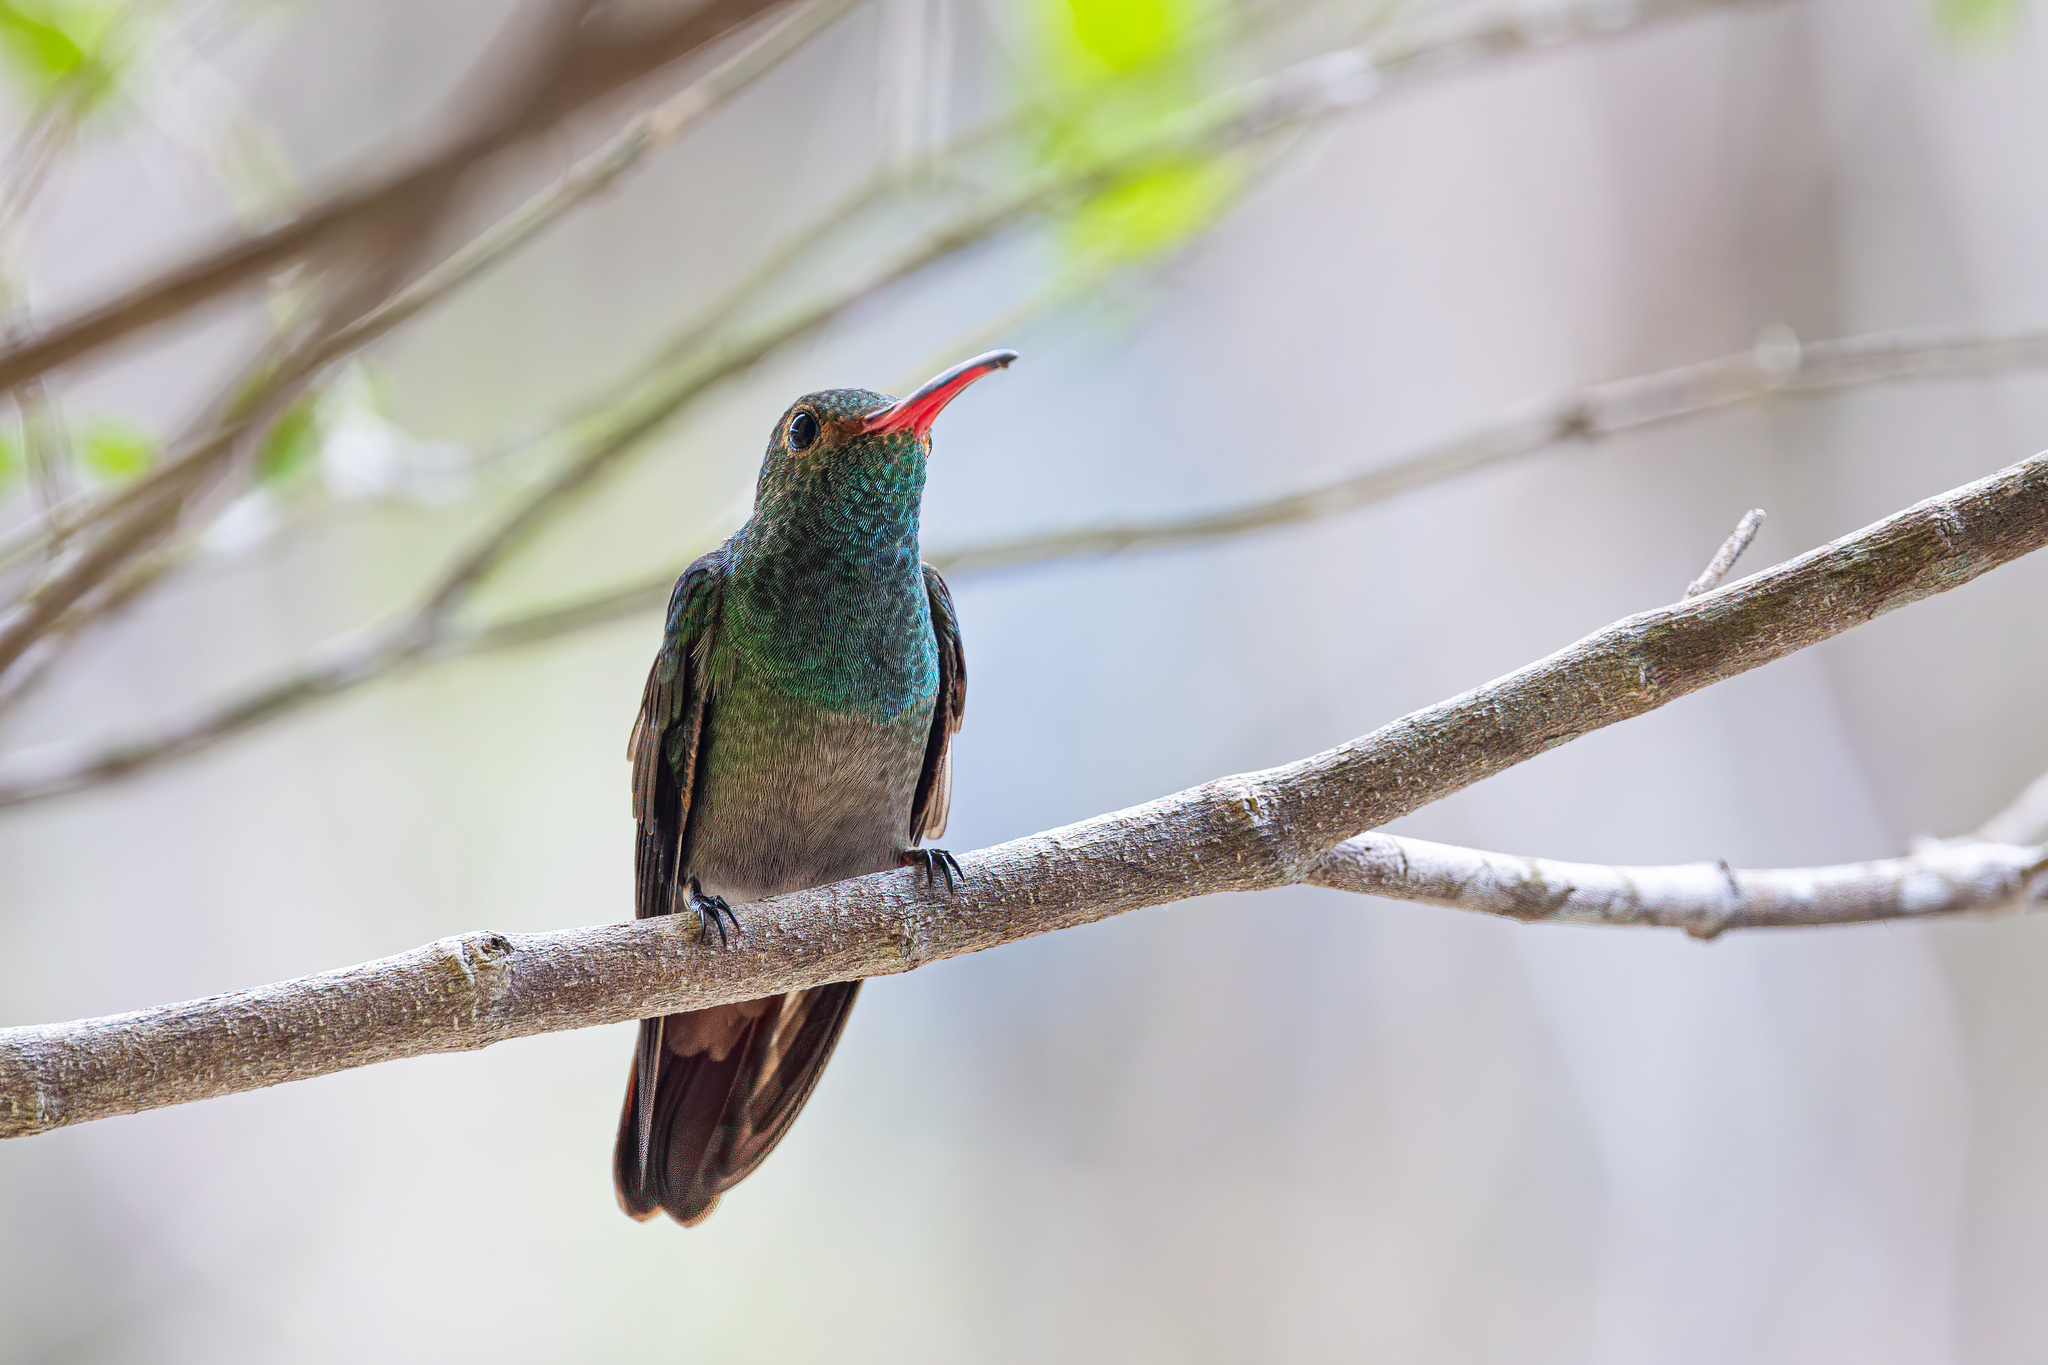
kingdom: Animalia
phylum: Chordata
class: Aves
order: Apodiformes
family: Trochilidae
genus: Amazilia
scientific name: Amazilia tzacatl
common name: Rufous-tailed hummingbird
